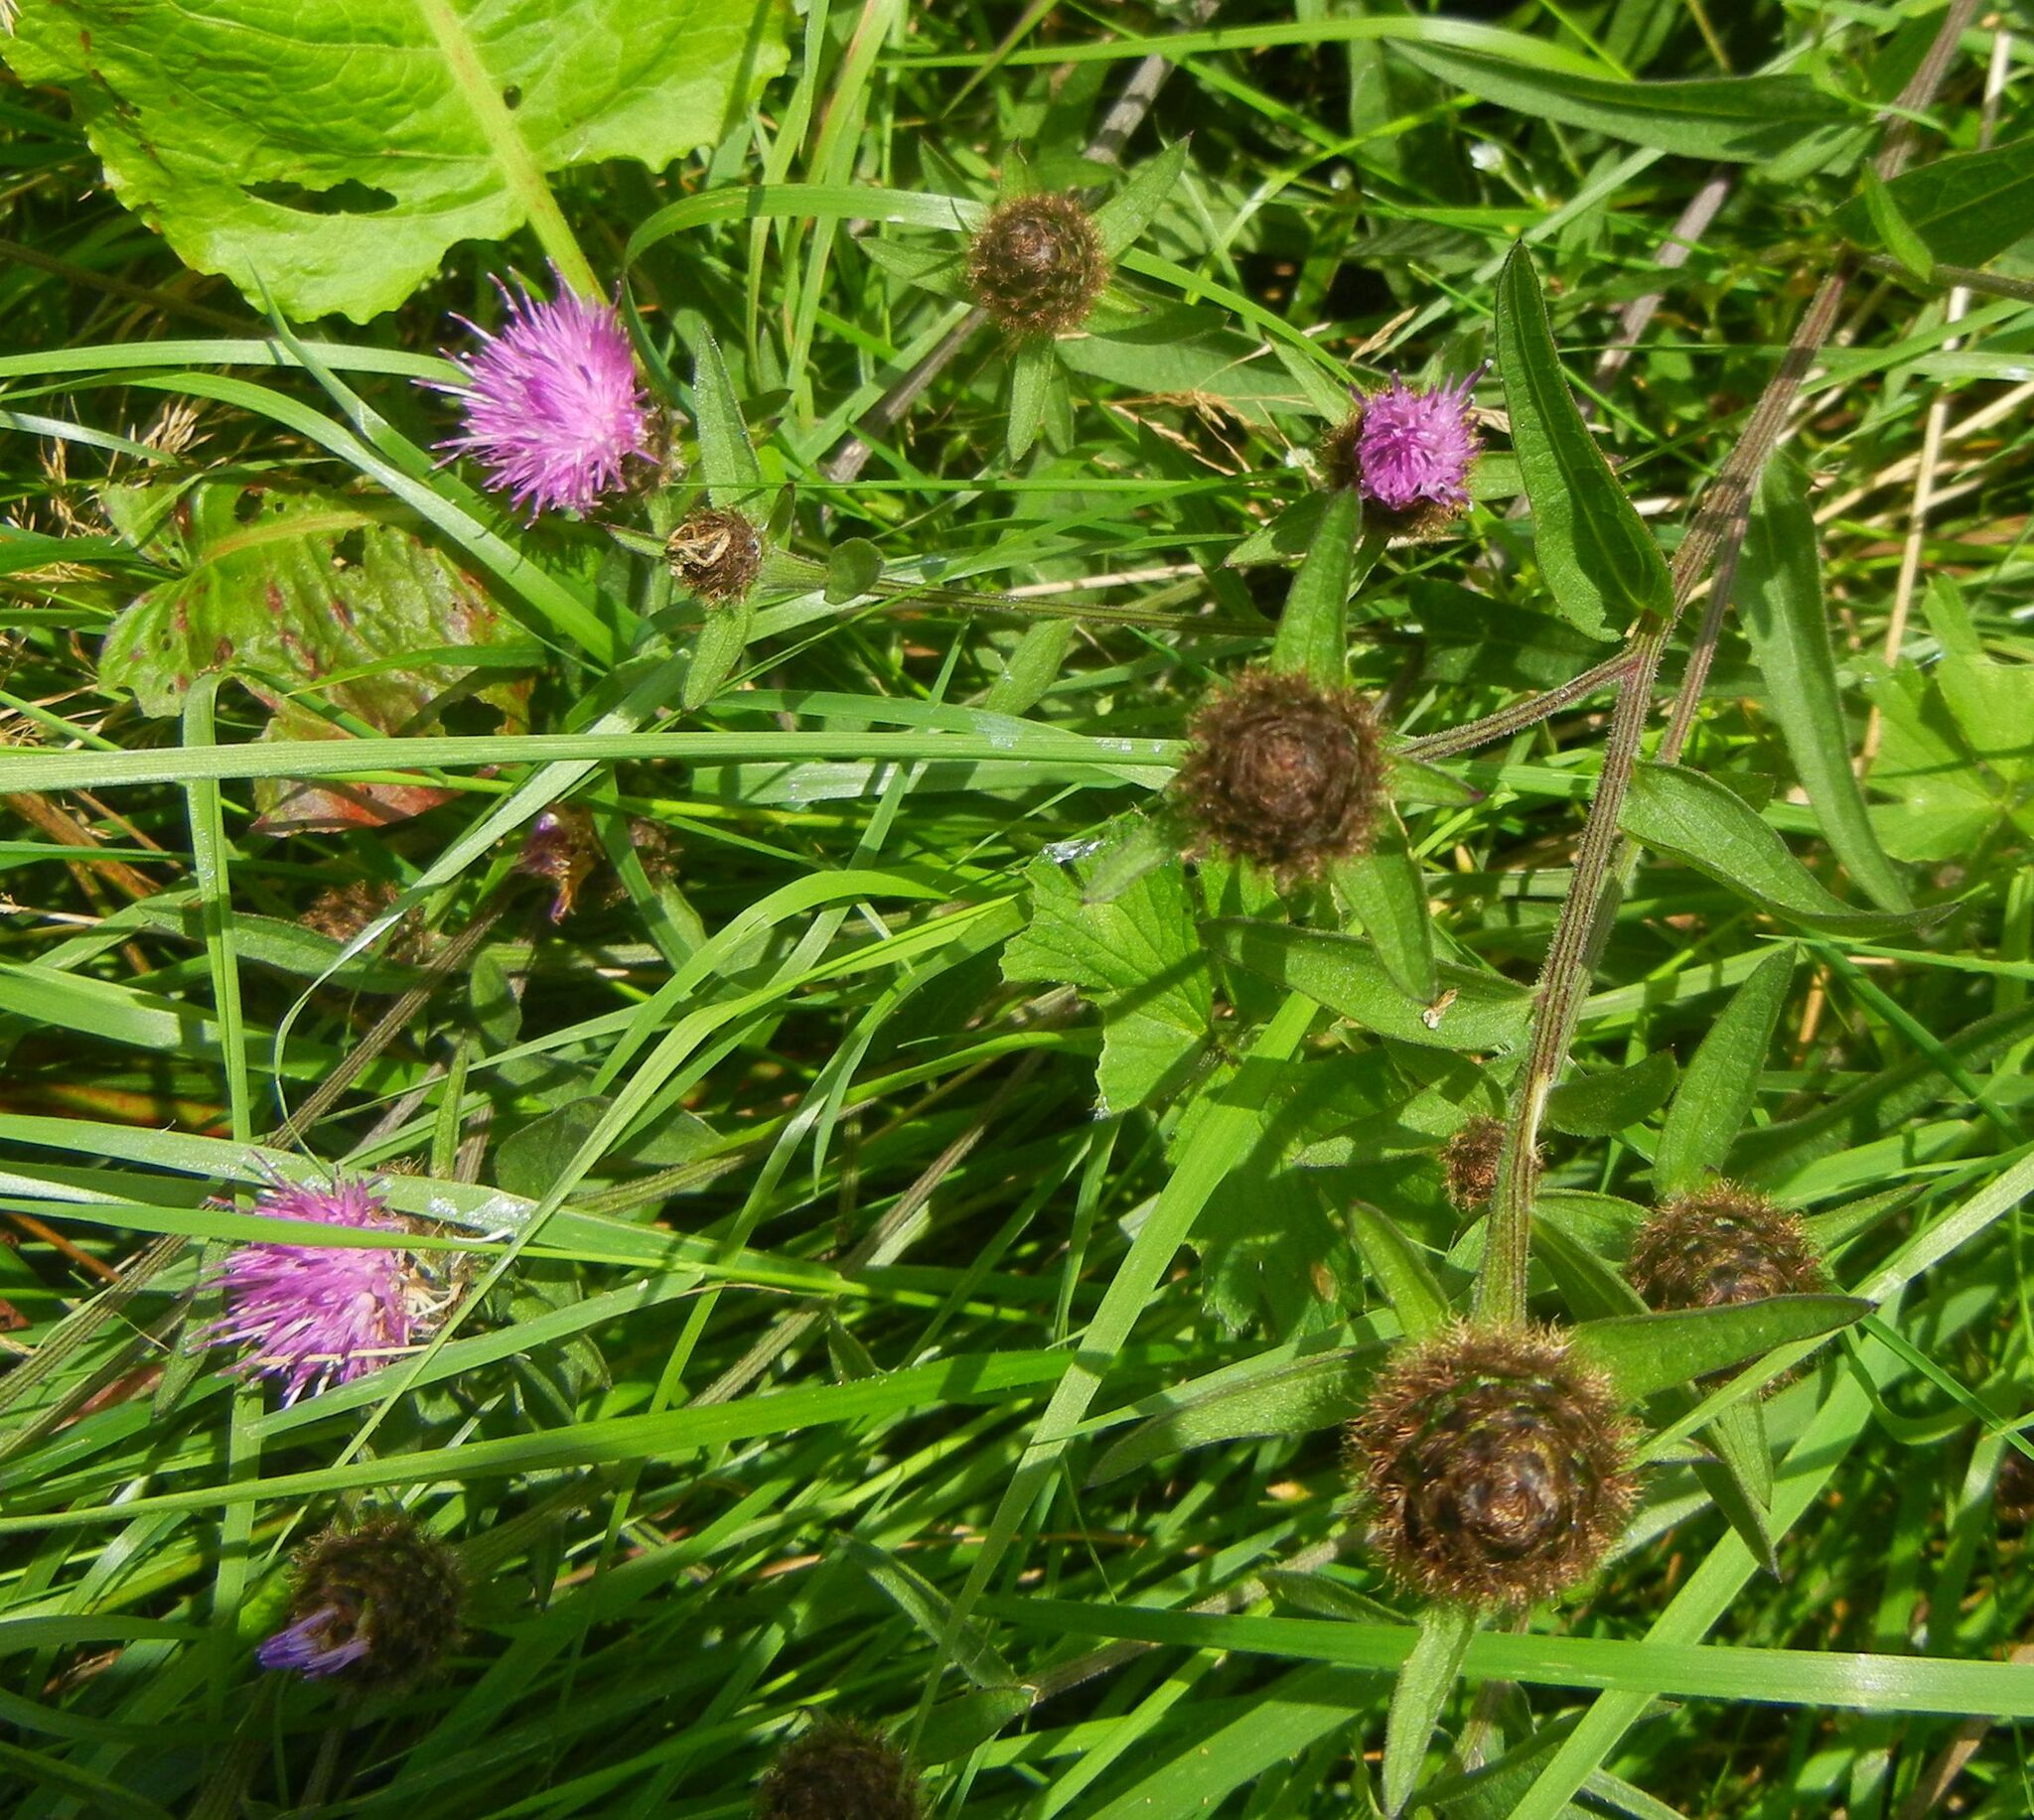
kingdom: Plantae
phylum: Tracheophyta
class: Magnoliopsida
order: Asterales
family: Asteraceae
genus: Centaurea
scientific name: Centaurea nigra
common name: Lesser knapweed
